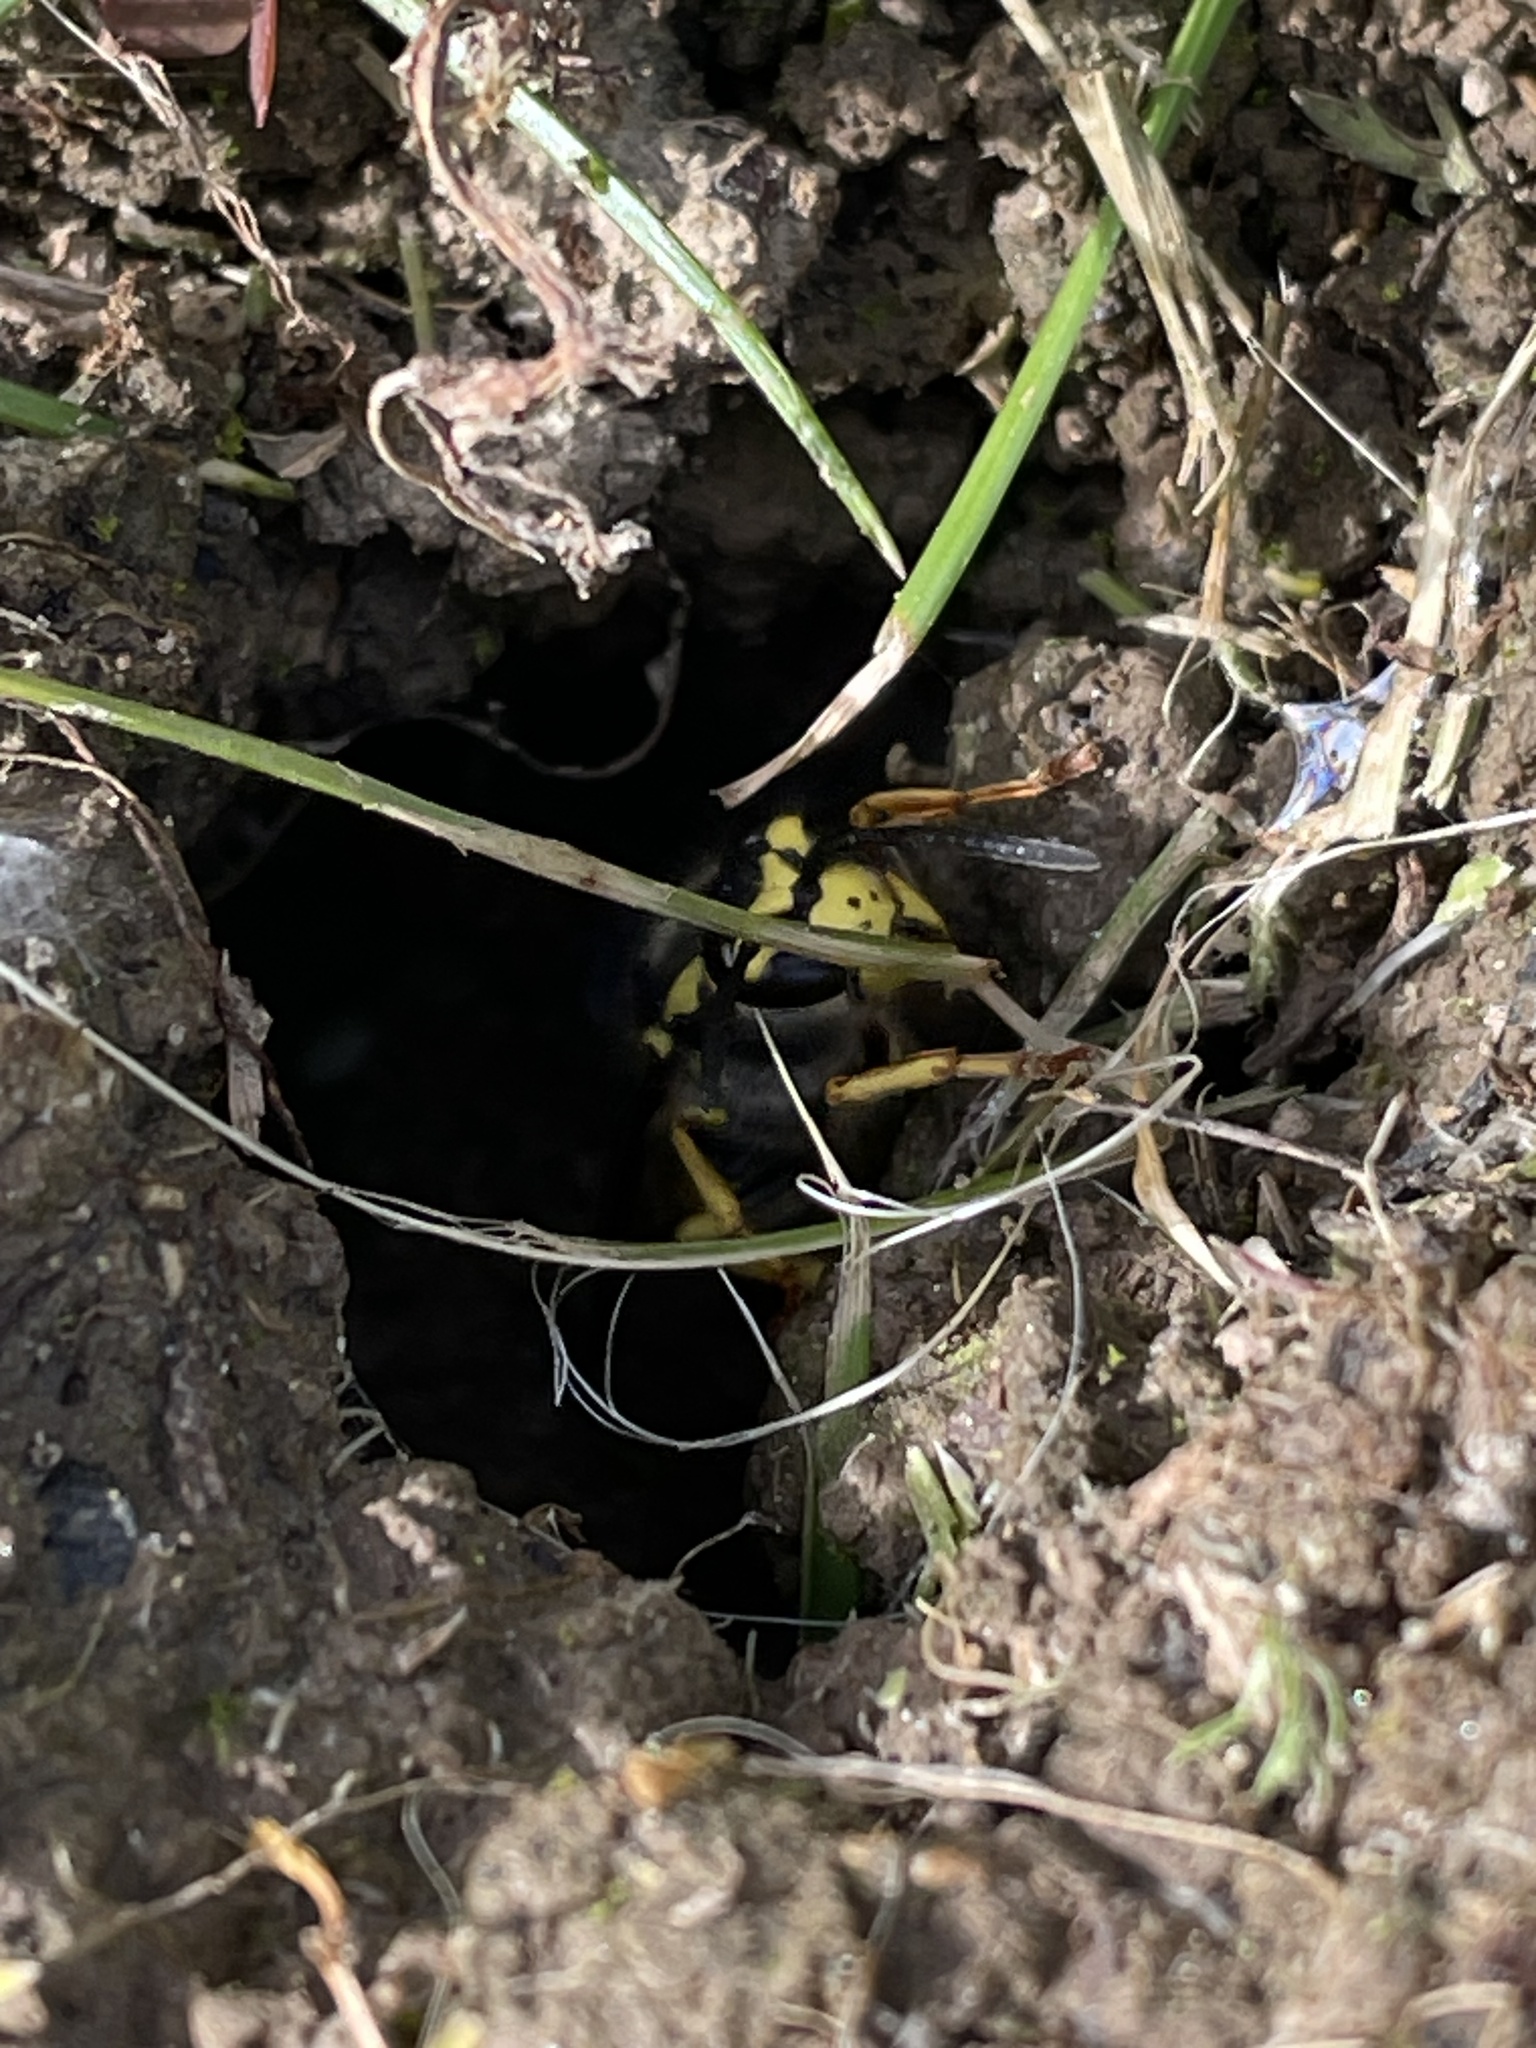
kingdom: Animalia
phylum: Arthropoda
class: Insecta
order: Hymenoptera
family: Vespidae
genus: Vespula
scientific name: Vespula germanica
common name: German wasp
